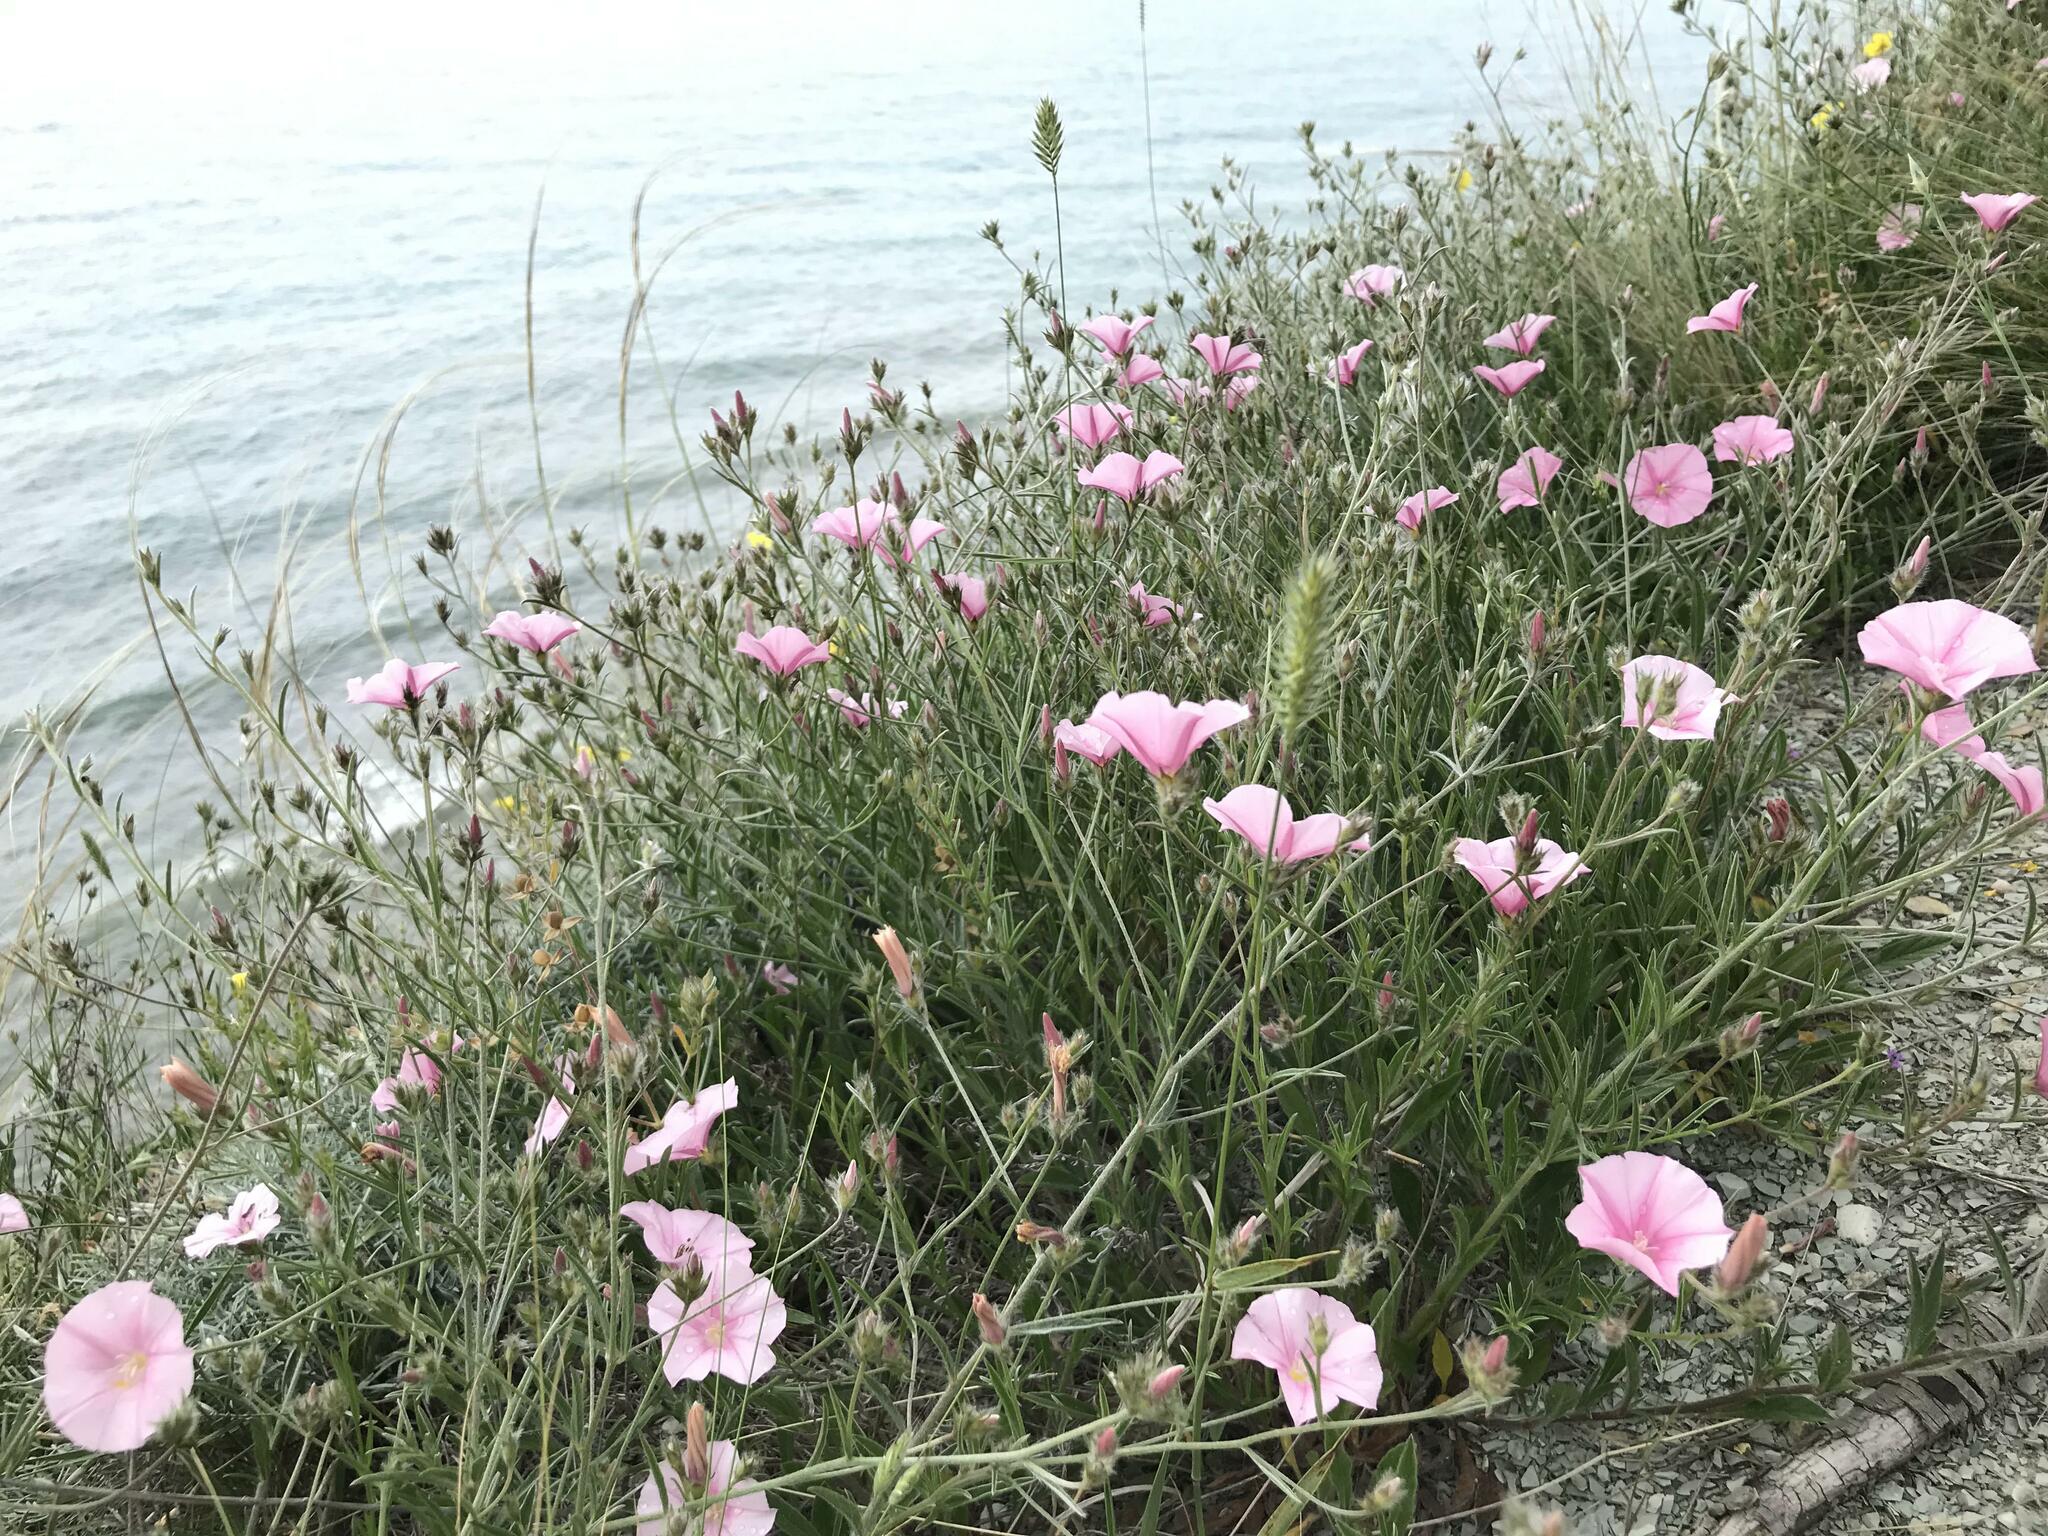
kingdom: Plantae
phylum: Tracheophyta
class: Magnoliopsida
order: Solanales
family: Convolvulaceae
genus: Convolvulus
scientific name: Convolvulus cantabrica
